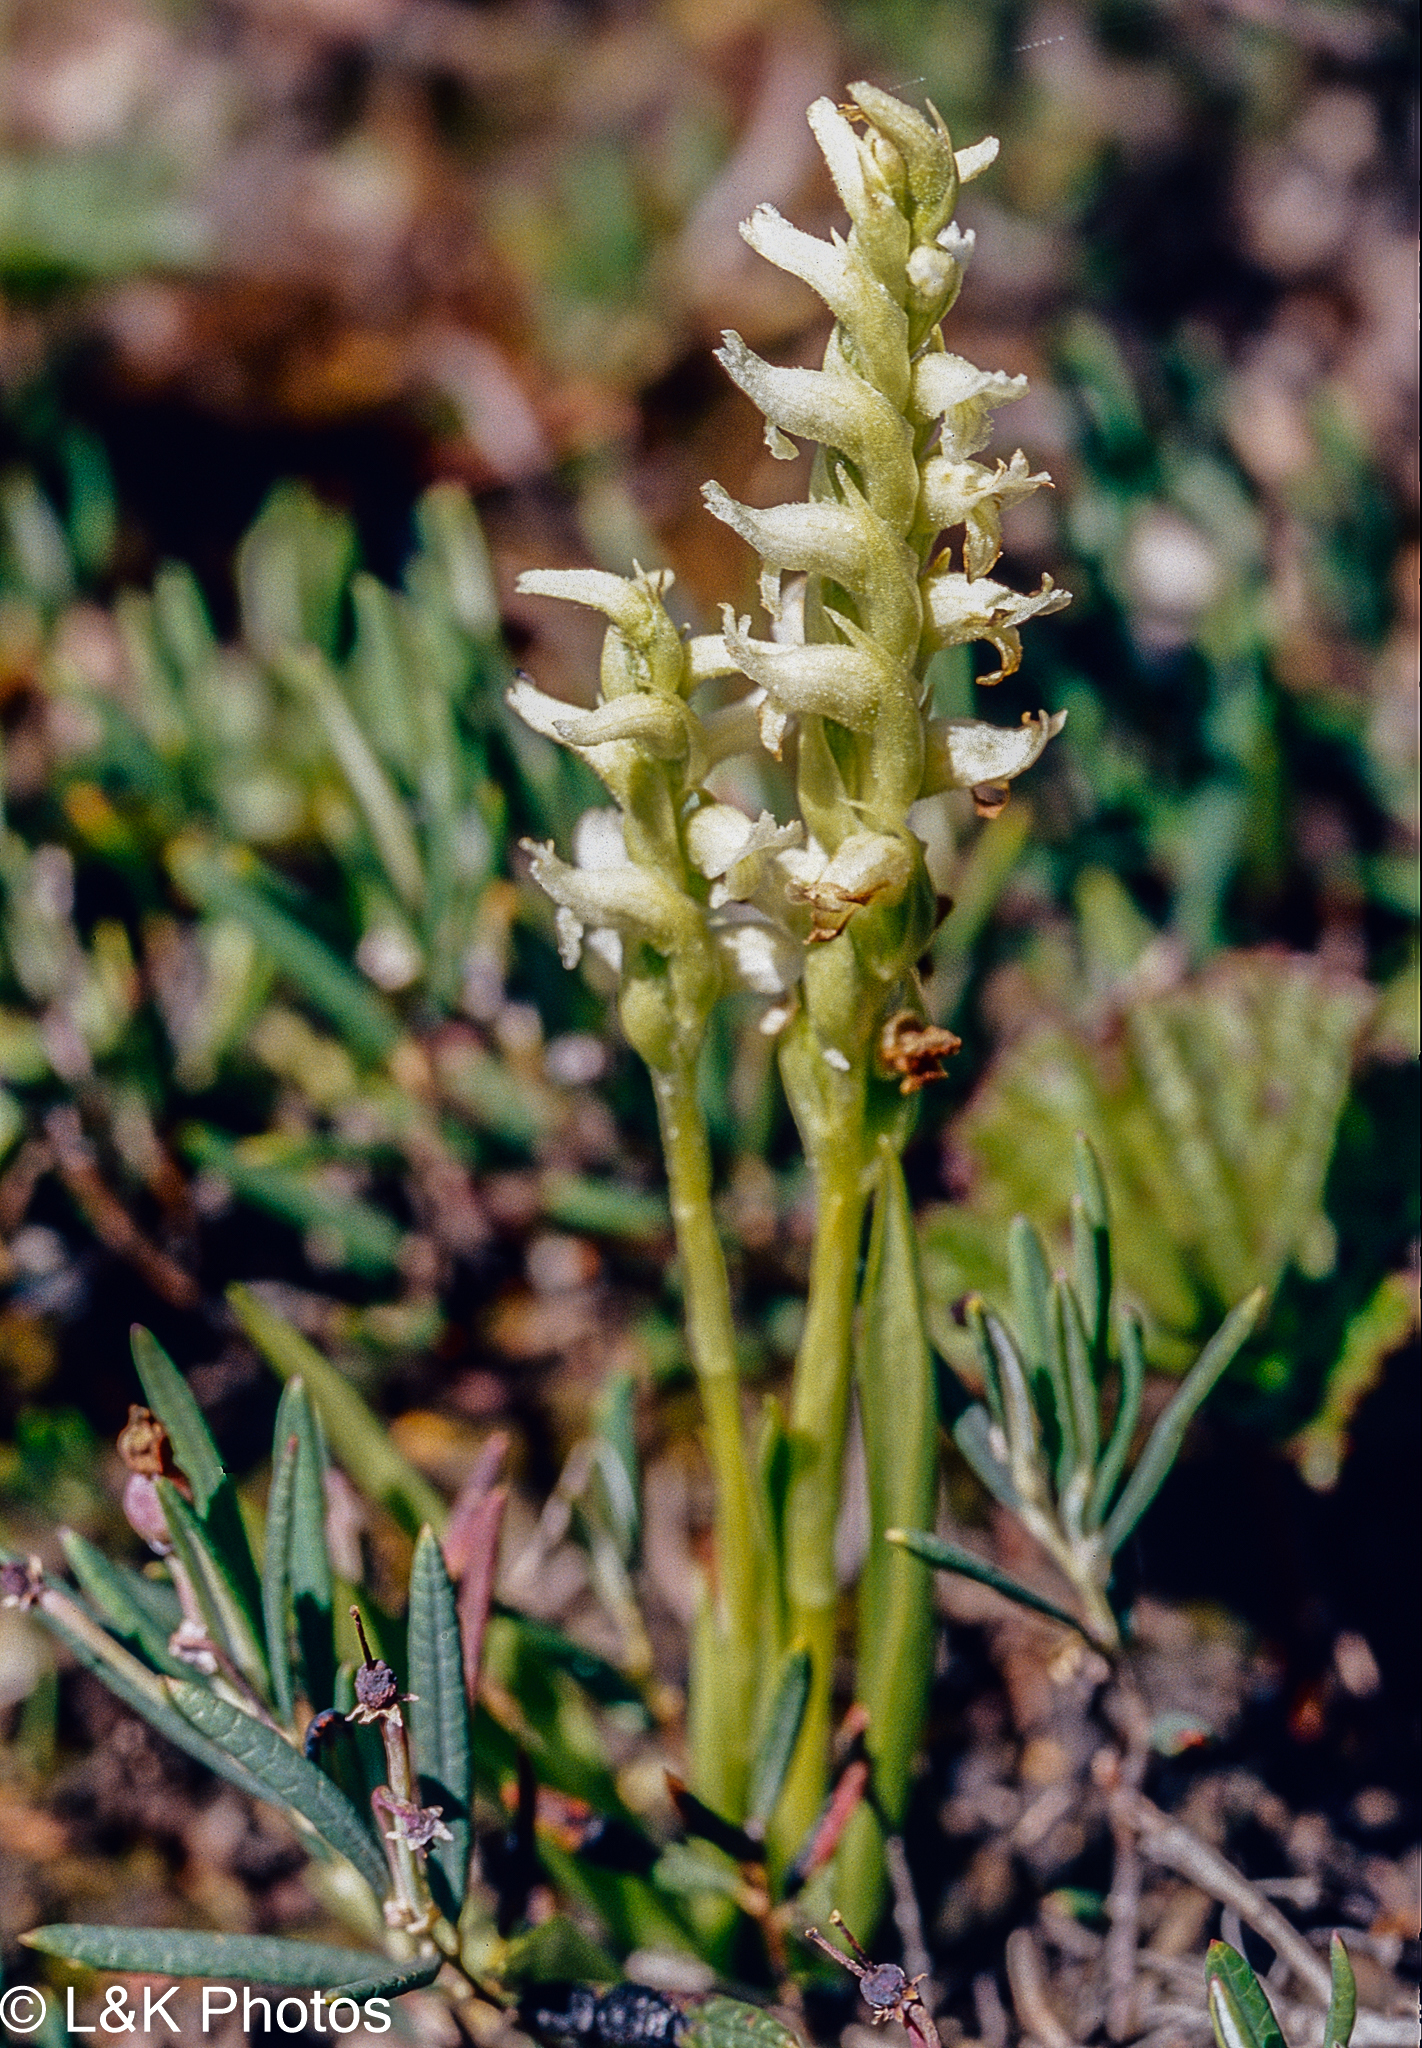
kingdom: Plantae
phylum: Tracheophyta
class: Liliopsida
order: Asparagales
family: Orchidaceae
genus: Spiranthes
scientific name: Spiranthes romanzoffiana
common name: Irish lady's-tresses
